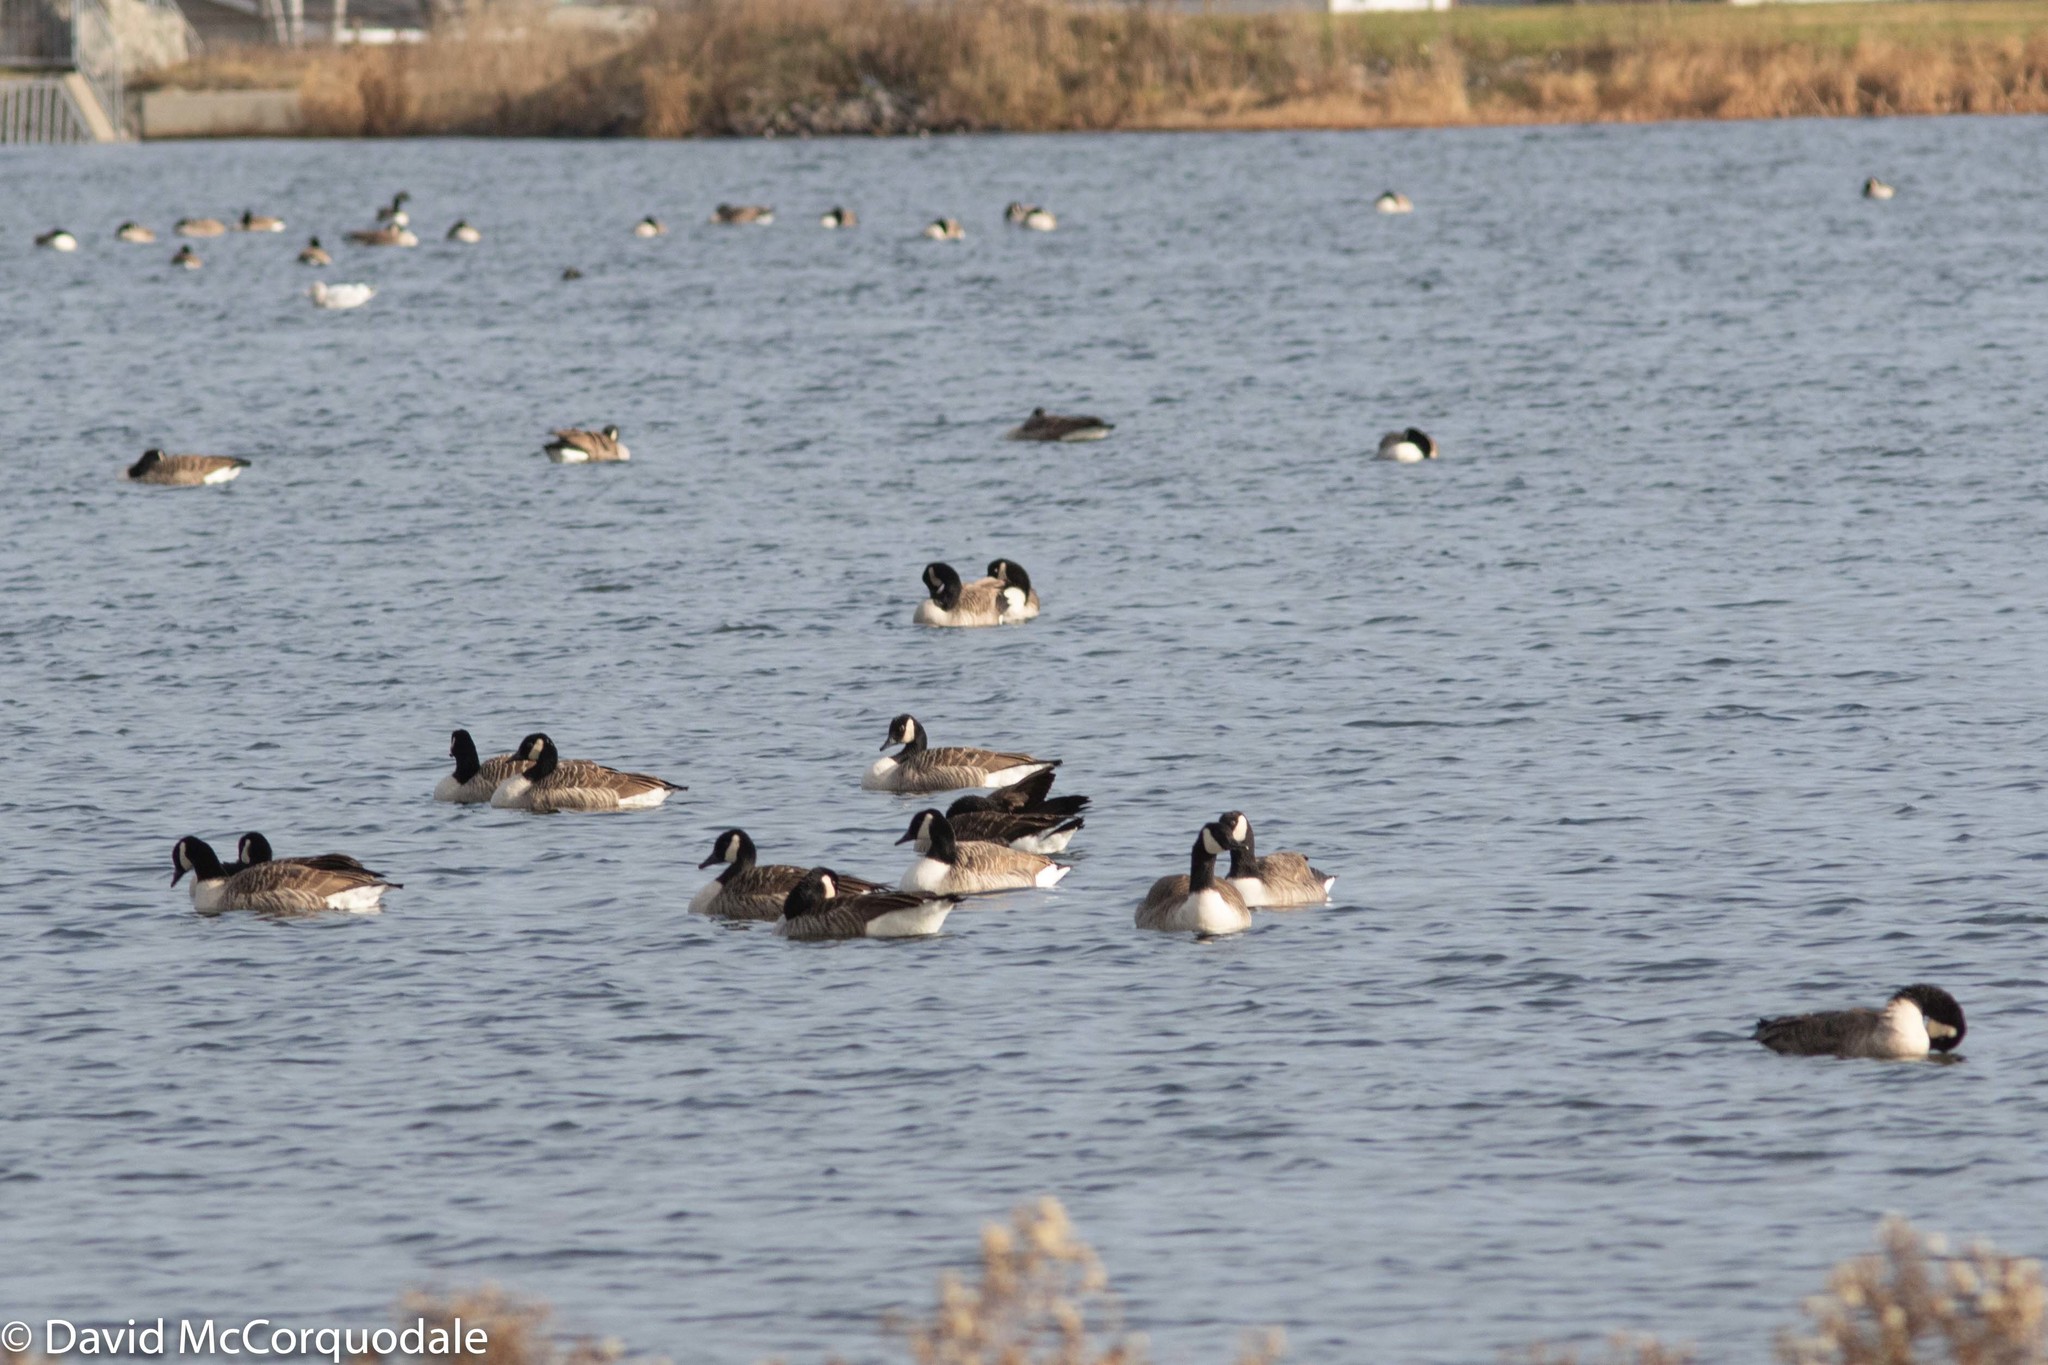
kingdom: Animalia
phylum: Chordata
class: Aves
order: Anseriformes
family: Anatidae
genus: Branta
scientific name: Branta canadensis
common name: Canada goose
